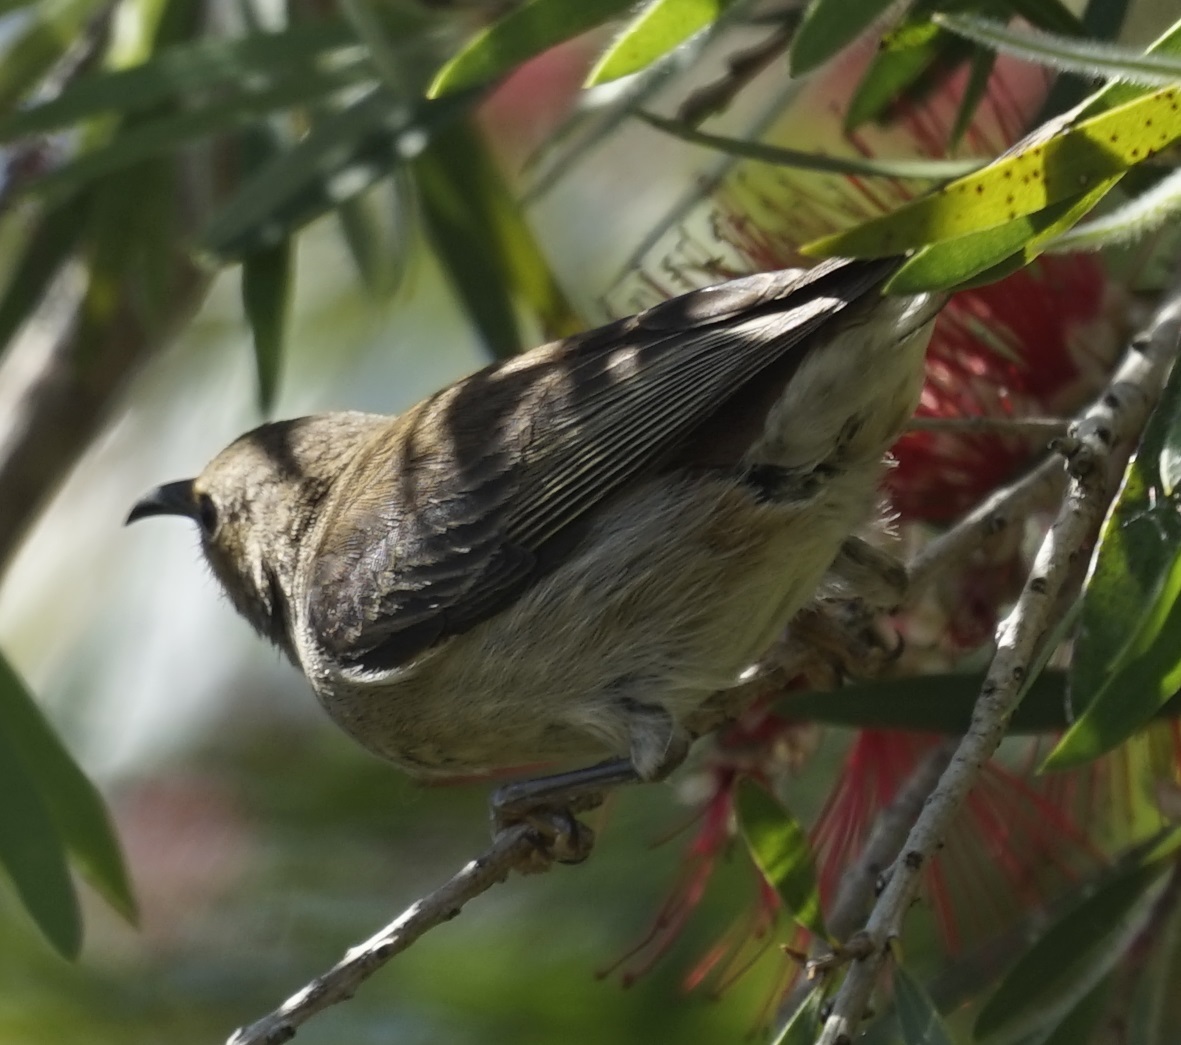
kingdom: Animalia
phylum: Chordata
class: Aves
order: Passeriformes
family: Meliphagidae
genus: Myzomela
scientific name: Myzomela sanguinolenta
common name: Scarlet myzomela
